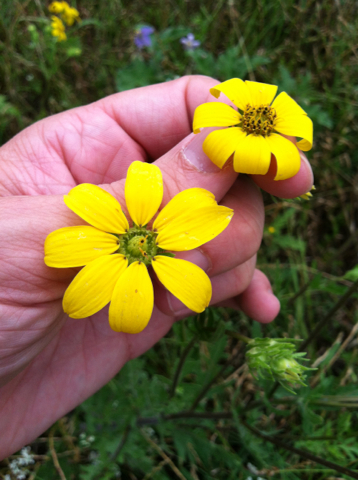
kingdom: Plantae
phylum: Tracheophyta
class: Magnoliopsida
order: Asterales
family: Asteraceae
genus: Engelmannia
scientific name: Engelmannia peristenia
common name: Engelmann's daisy
